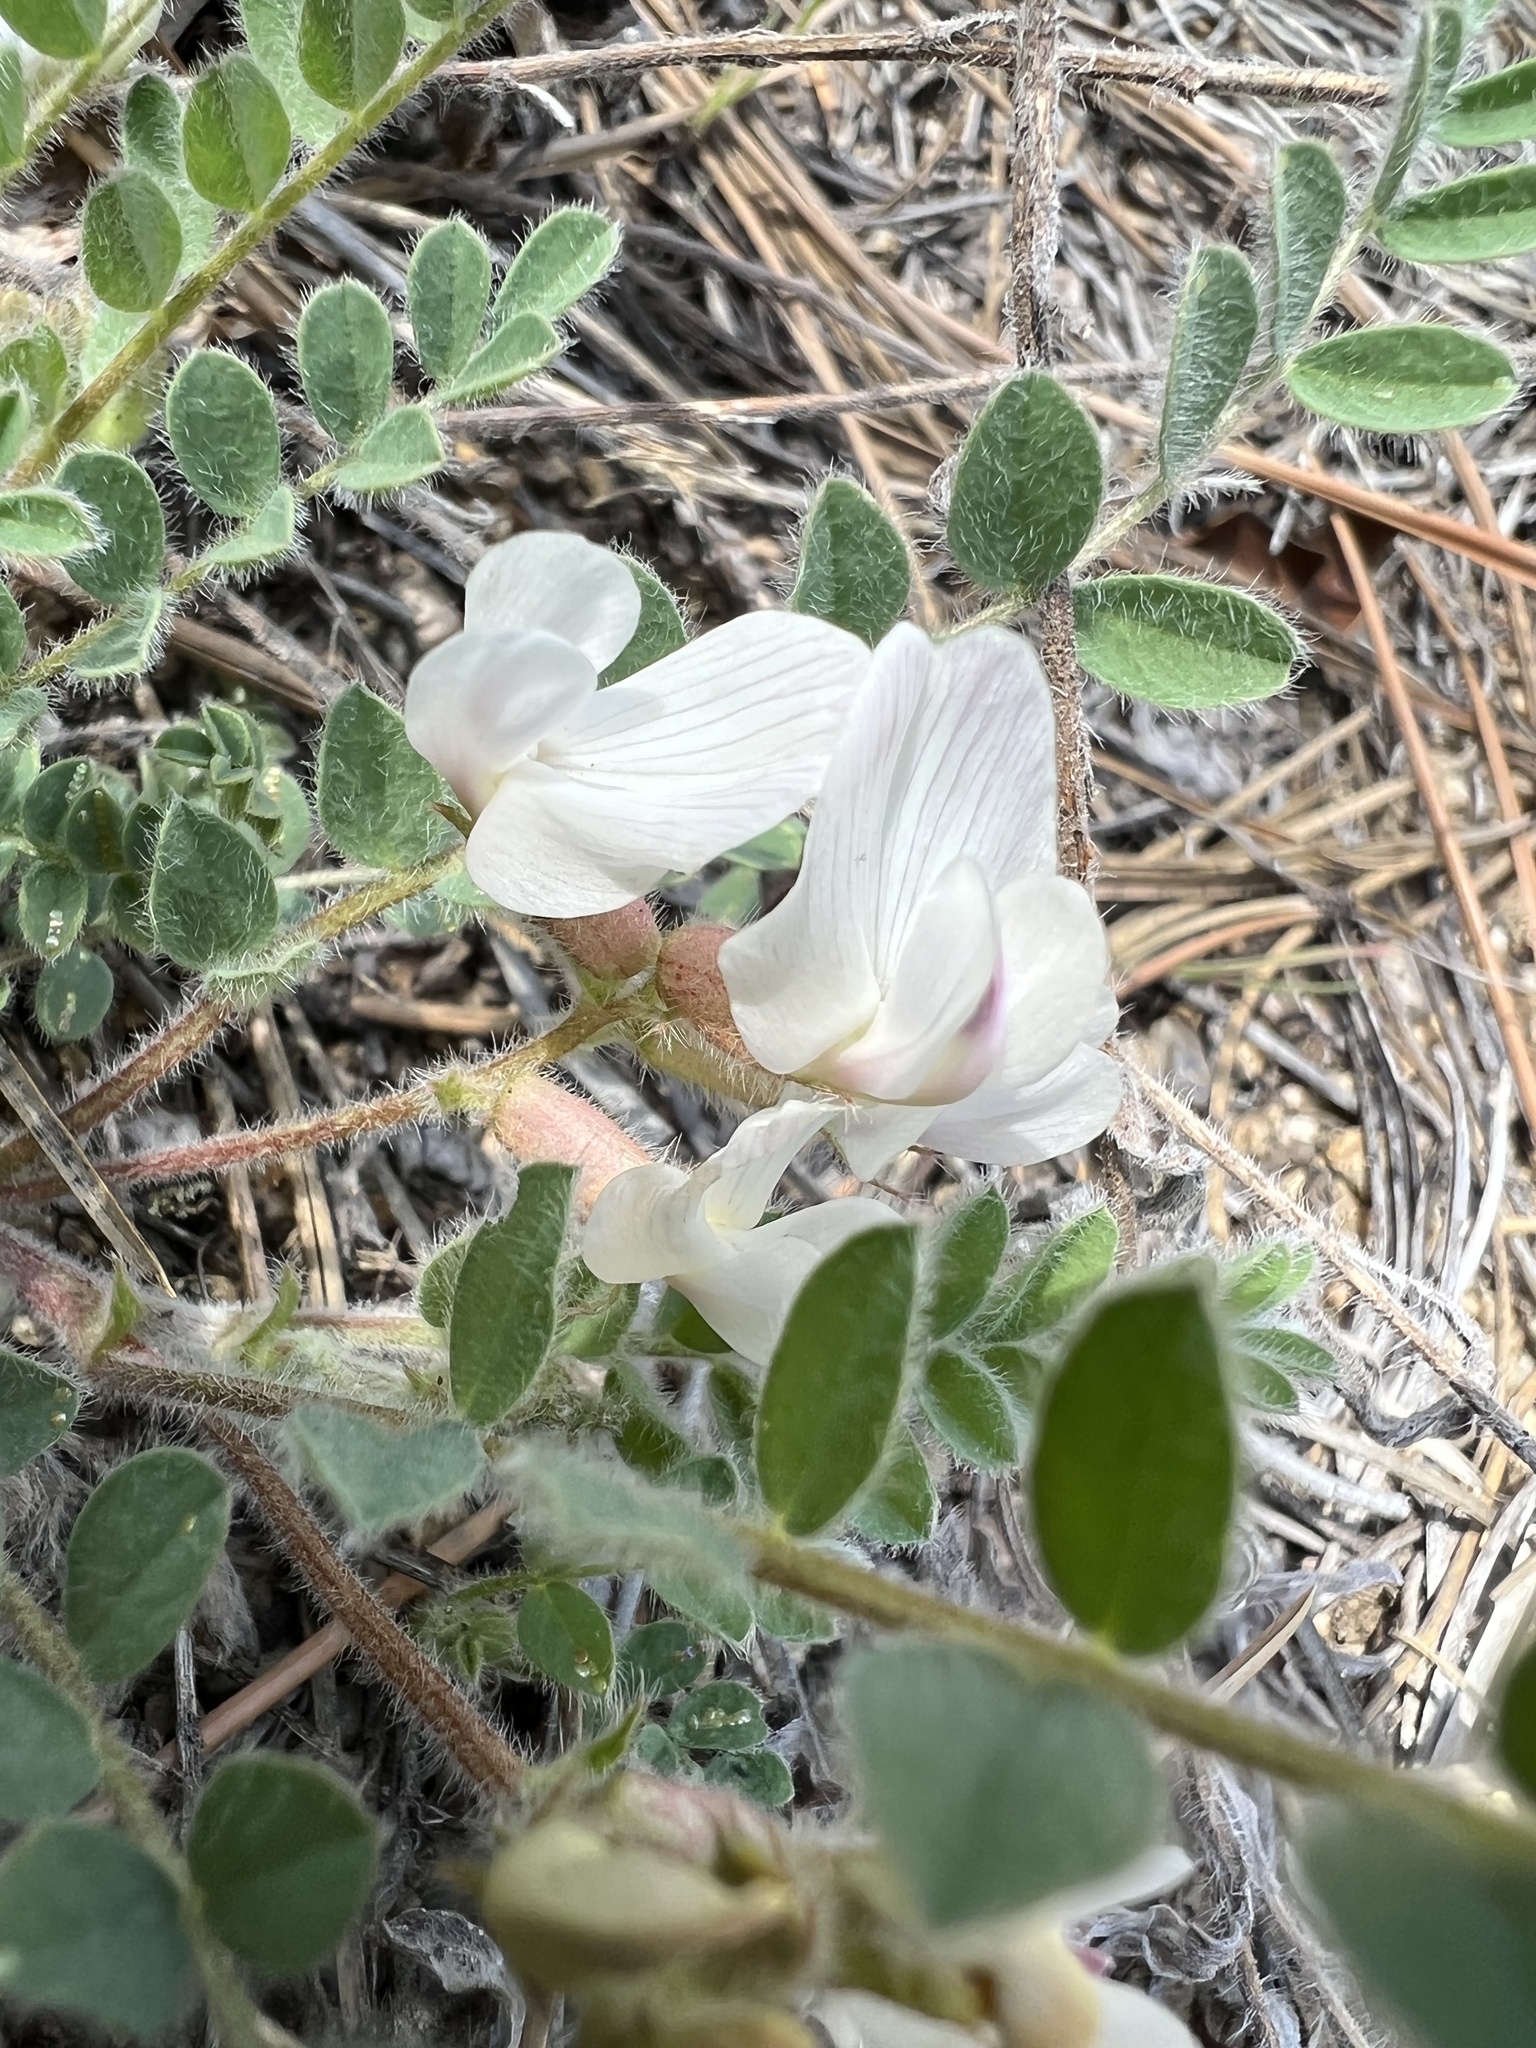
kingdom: Plantae
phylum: Tracheophyta
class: Magnoliopsida
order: Fabales
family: Fabaceae
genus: Astragalus
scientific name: Astragalus parryi
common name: Parry milk-vetch
